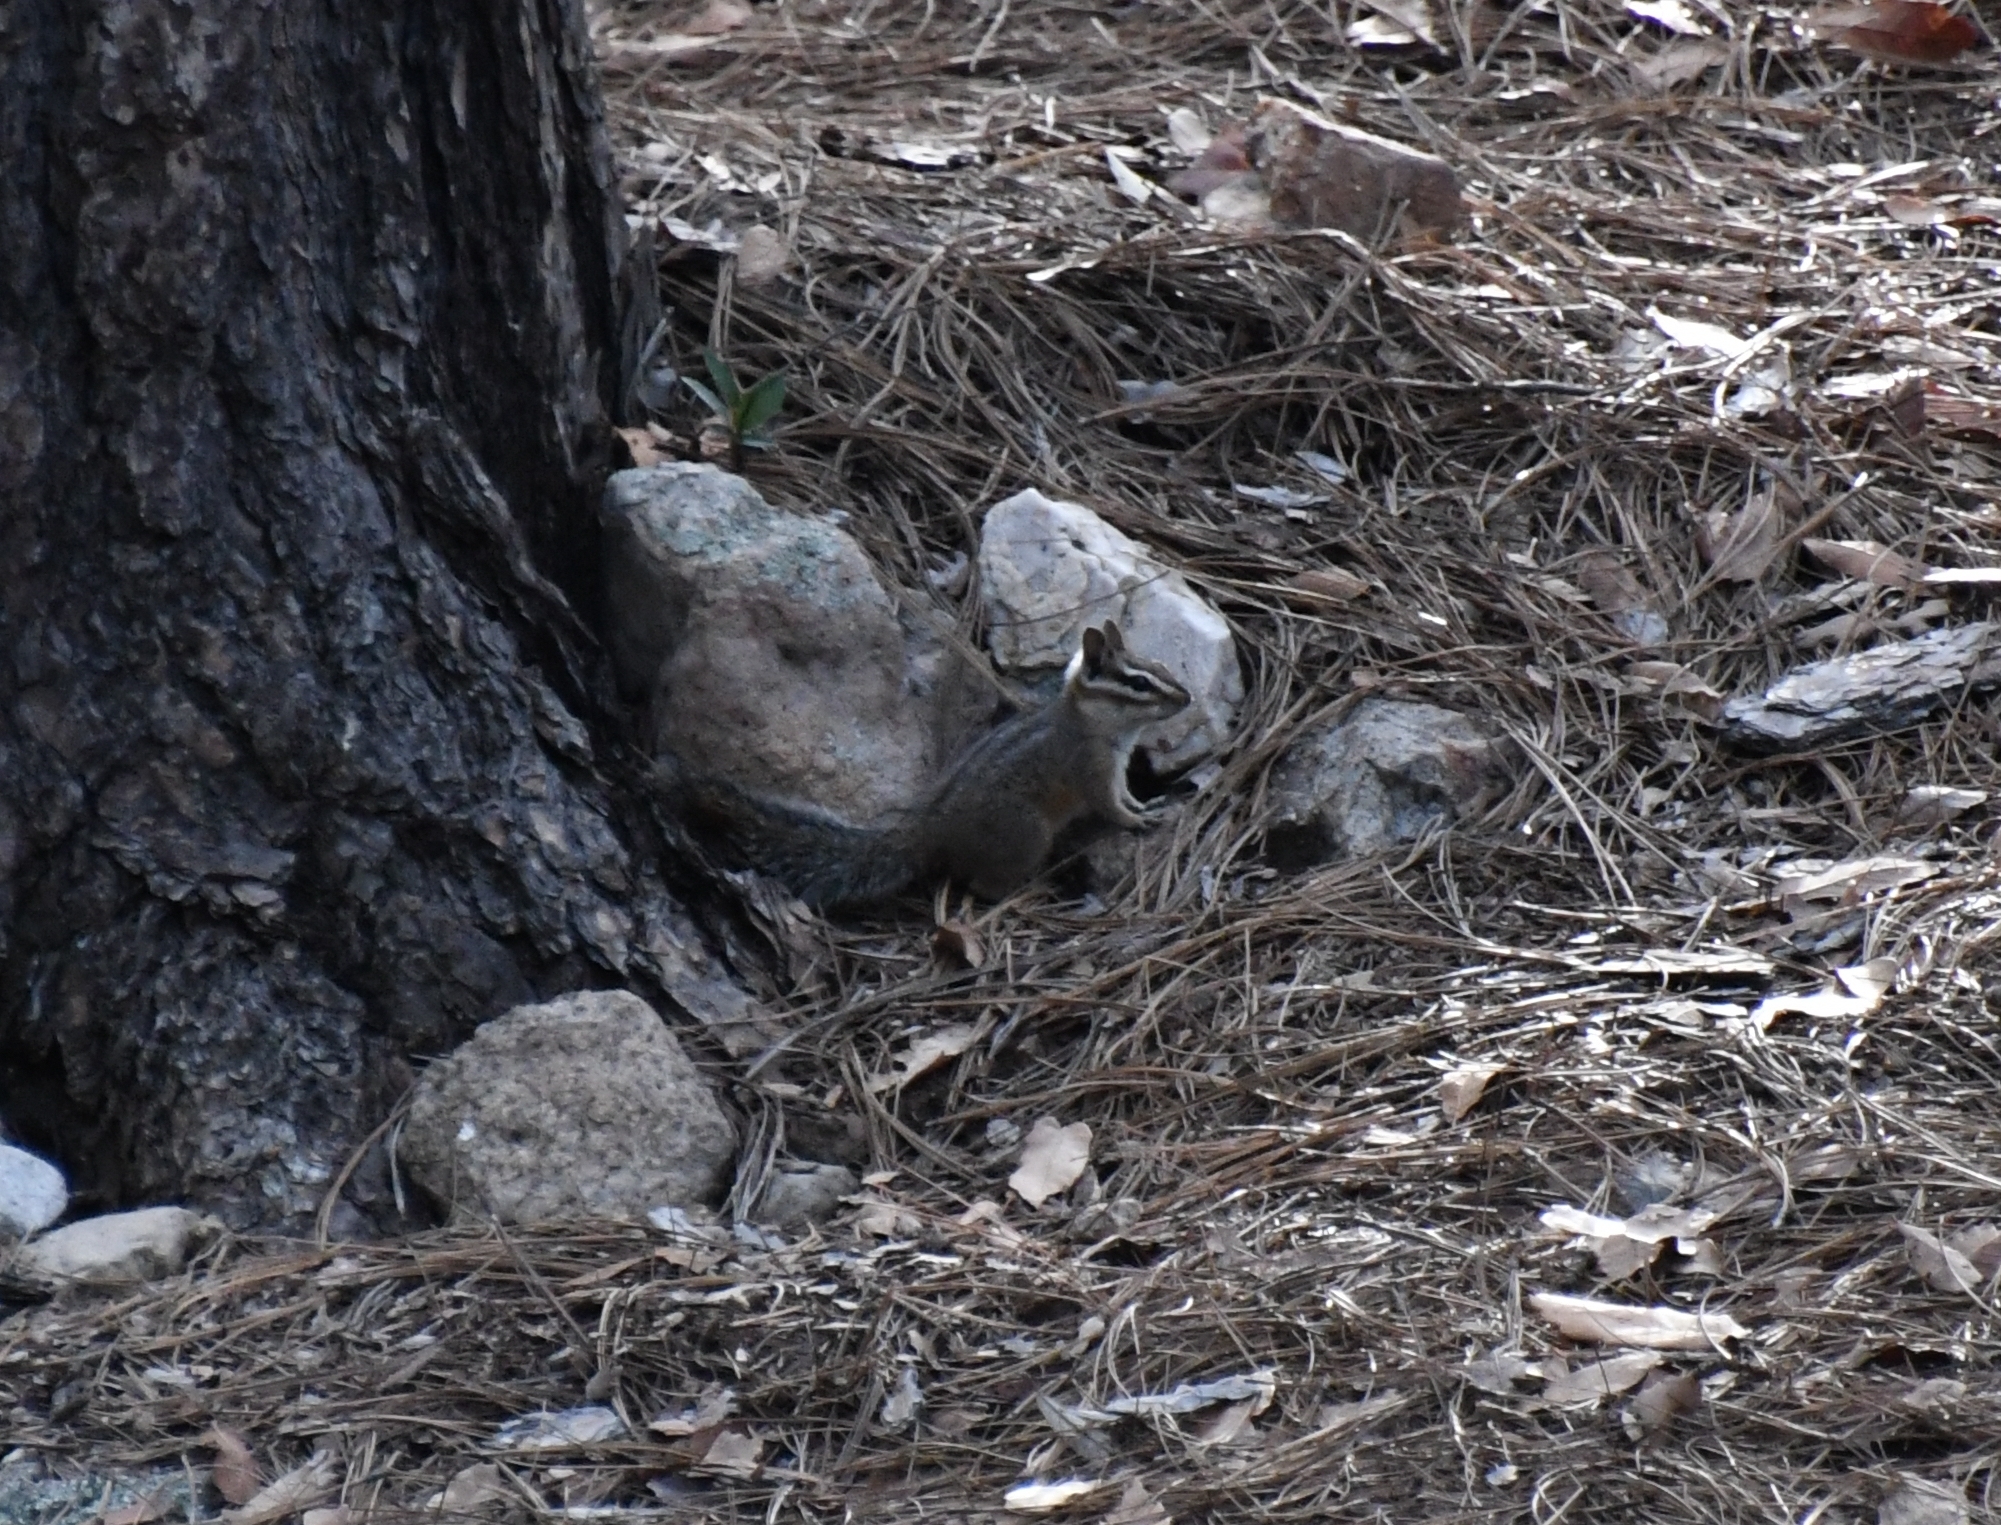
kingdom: Animalia
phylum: Chordata
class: Mammalia
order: Rodentia
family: Sciuridae
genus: Tamias
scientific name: Tamias dorsalis
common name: Cliff chipmunk
